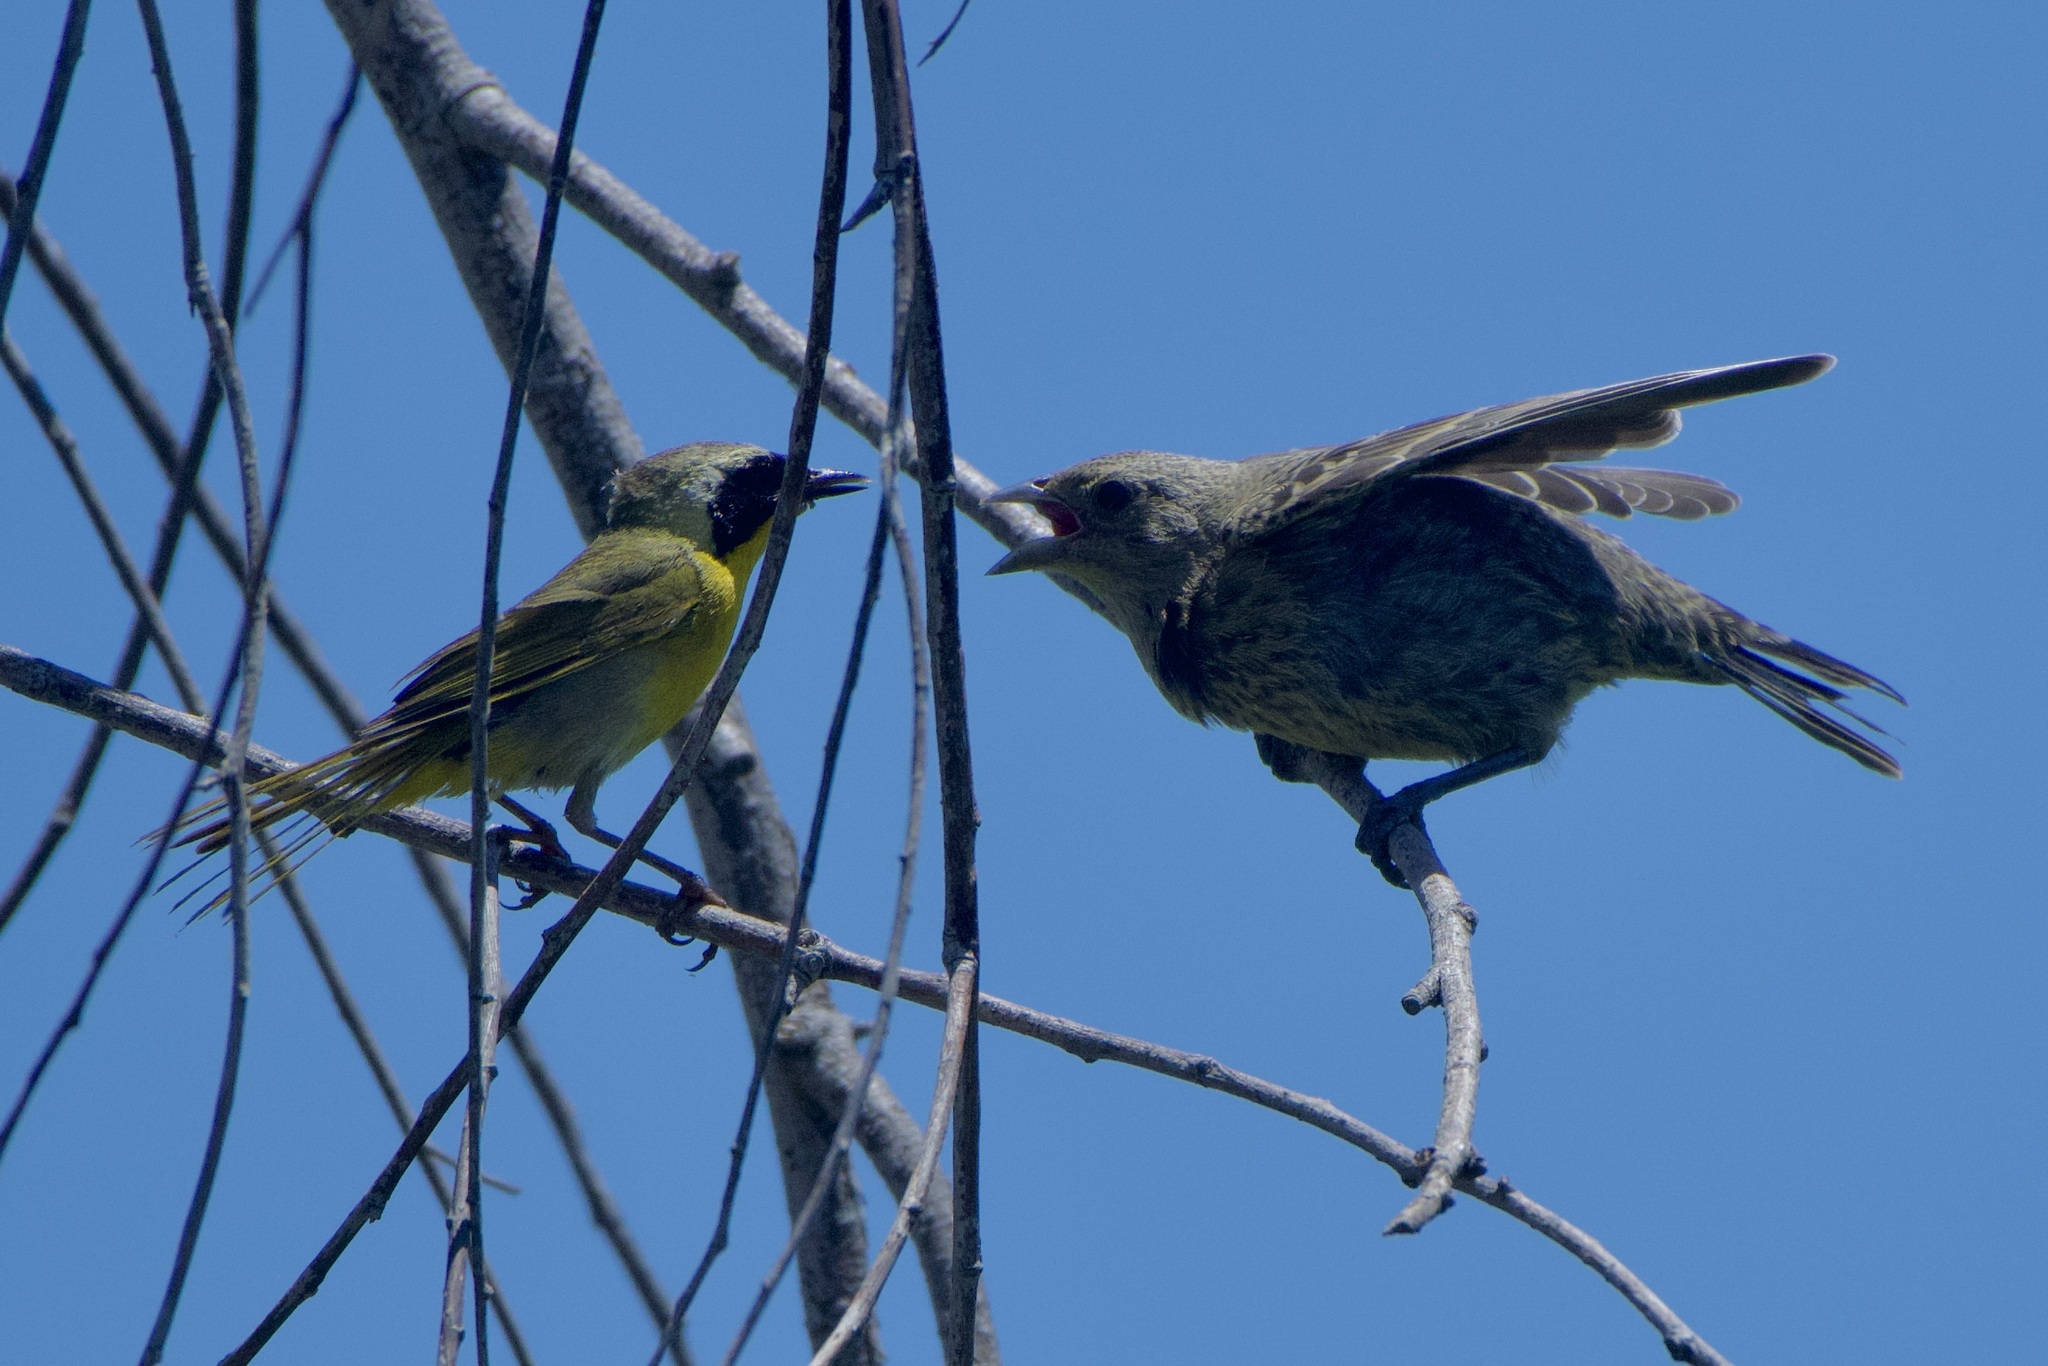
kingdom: Animalia
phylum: Chordata
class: Aves
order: Passeriformes
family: Parulidae
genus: Geothlypis
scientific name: Geothlypis trichas
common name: Common yellowthroat
